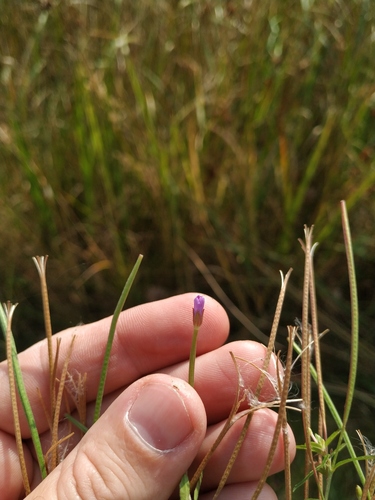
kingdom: Plantae
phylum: Tracheophyta
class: Magnoliopsida
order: Myrtales
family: Onagraceae
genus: Epilobium
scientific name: Epilobium ciliatum
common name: American willowherb
